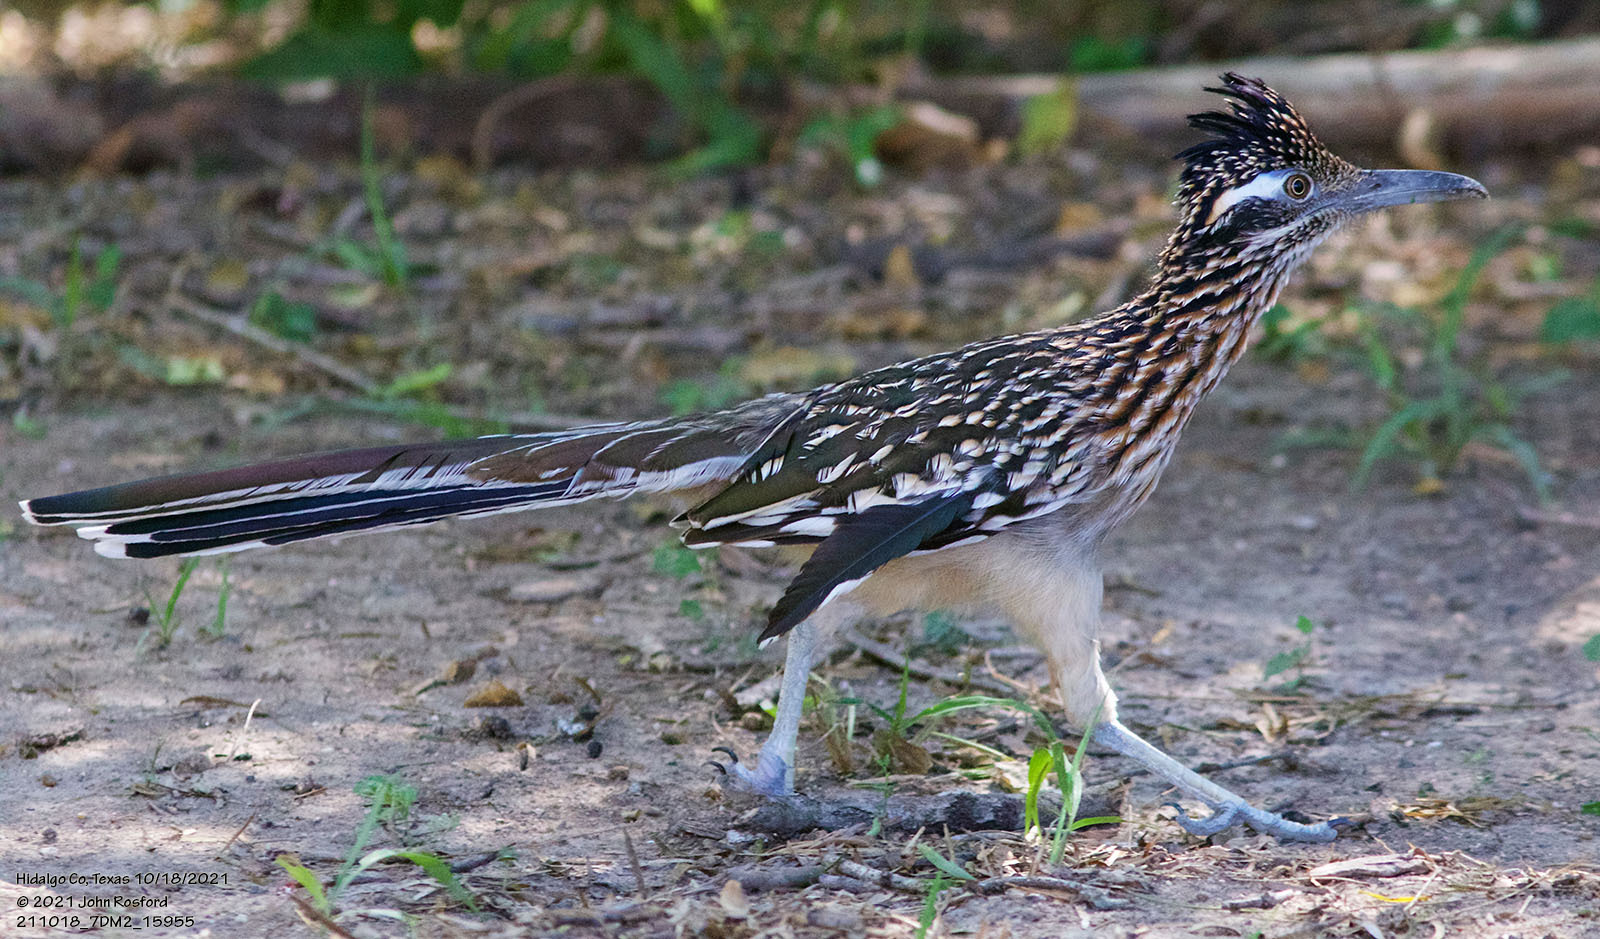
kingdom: Animalia
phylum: Chordata
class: Aves
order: Cuculiformes
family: Cuculidae
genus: Geococcyx
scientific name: Geococcyx californianus
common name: Greater roadrunner
